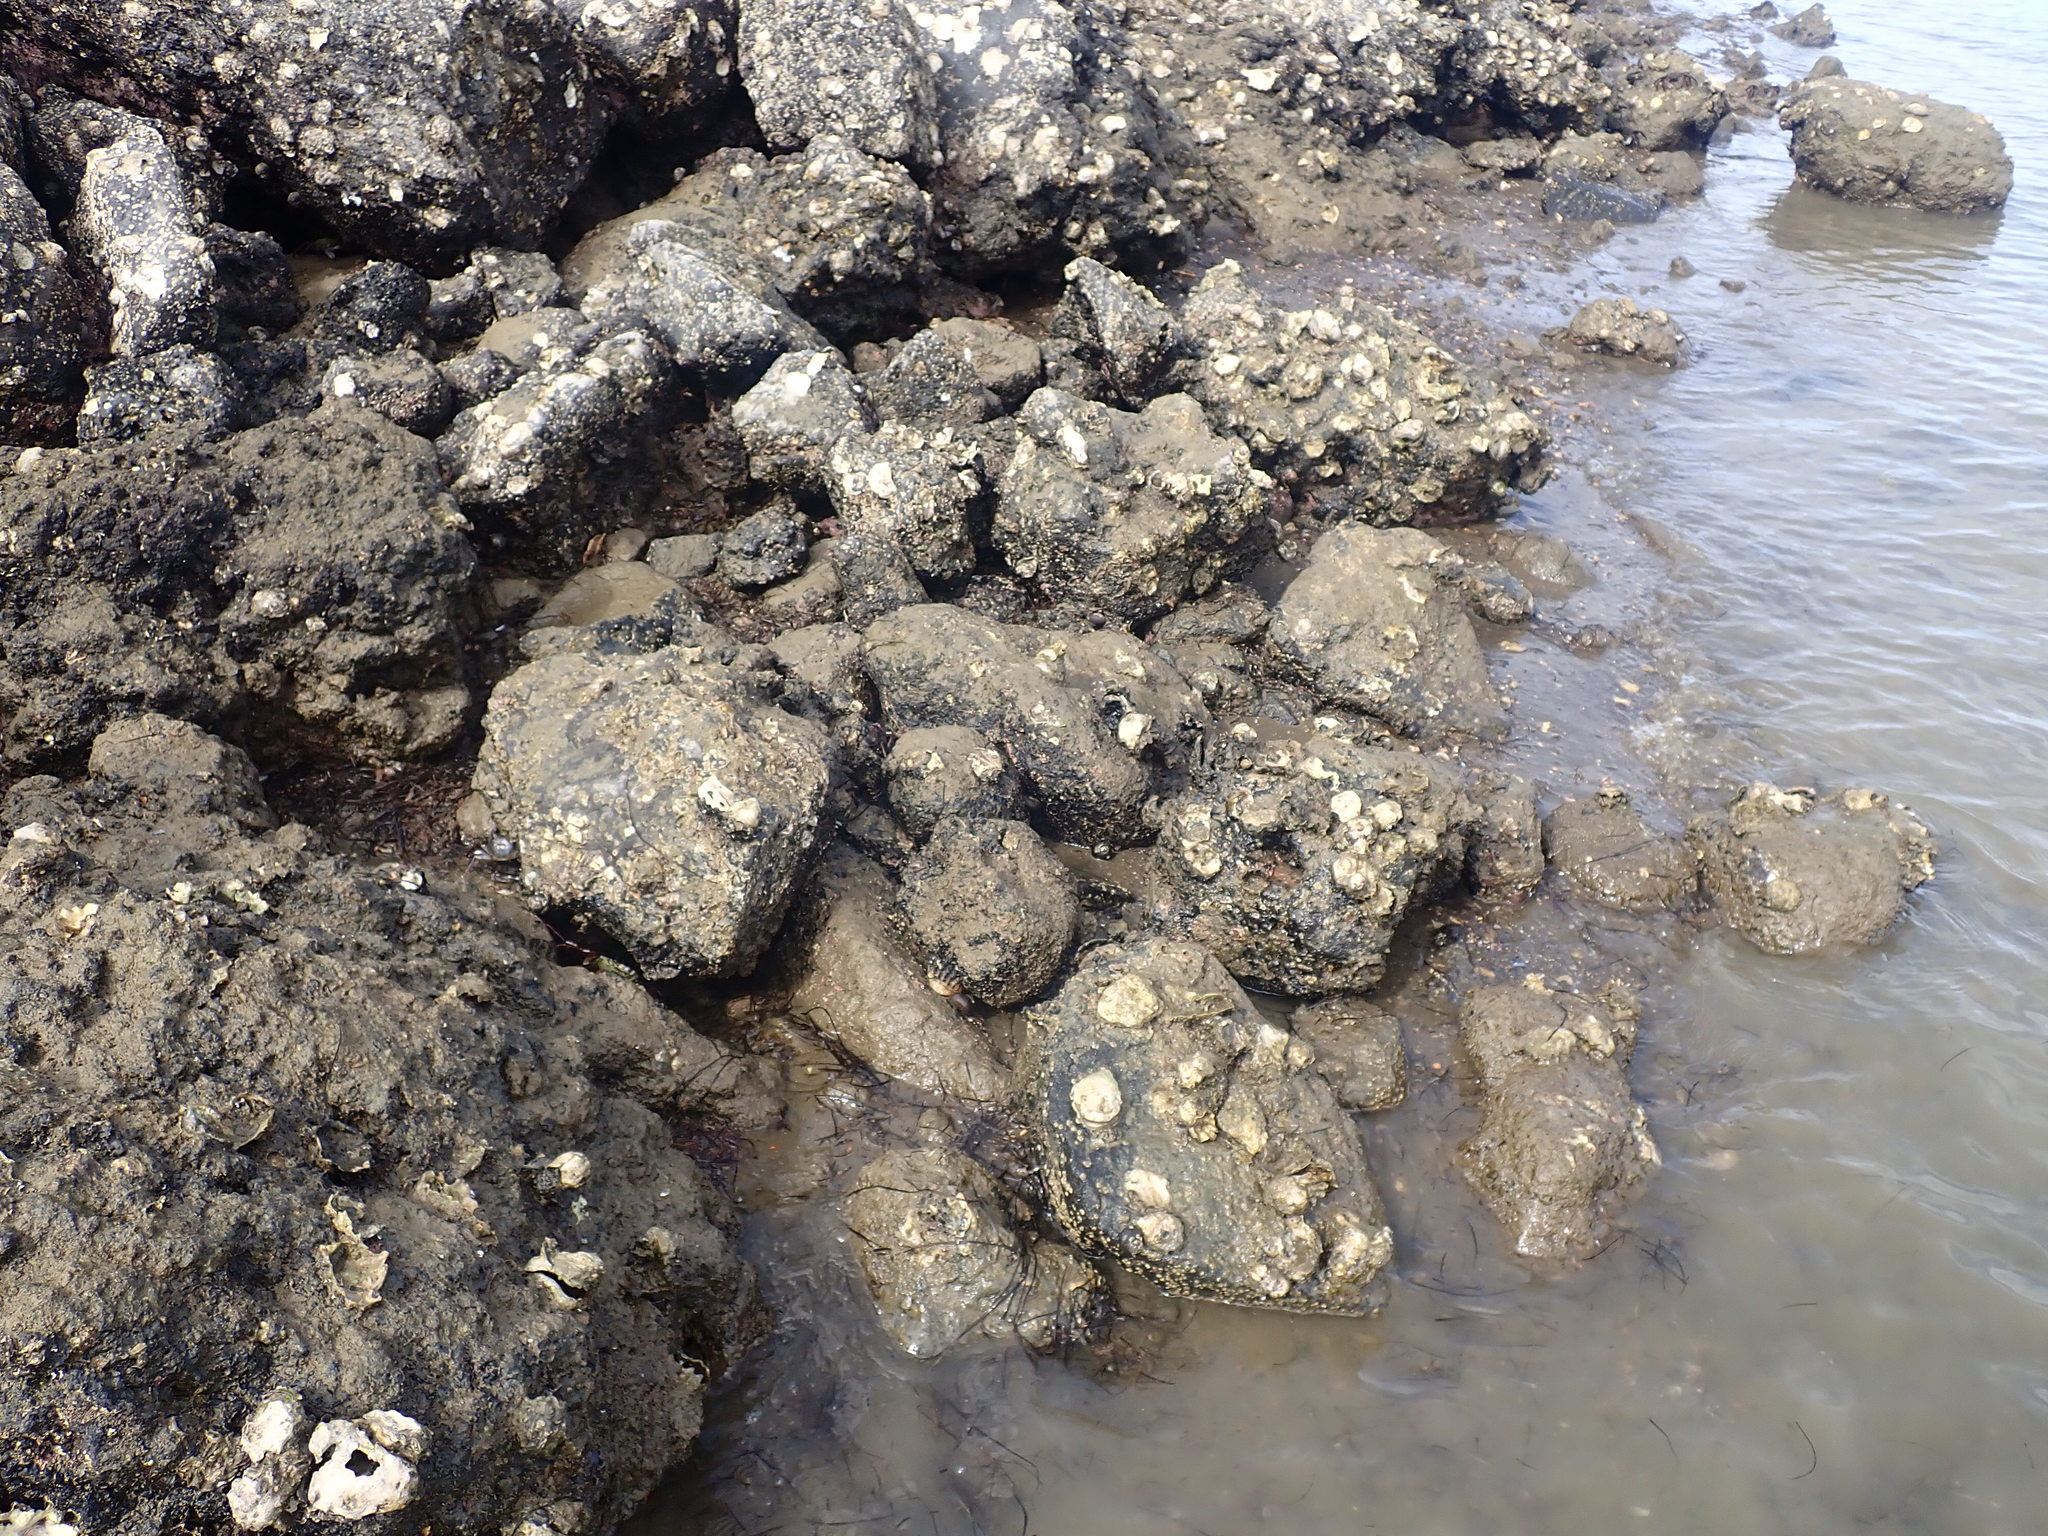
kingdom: Animalia
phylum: Mollusca
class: Bivalvia
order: Ostreida
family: Ostreidae
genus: Magallana
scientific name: Magallana gigas
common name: Pacific oyster
